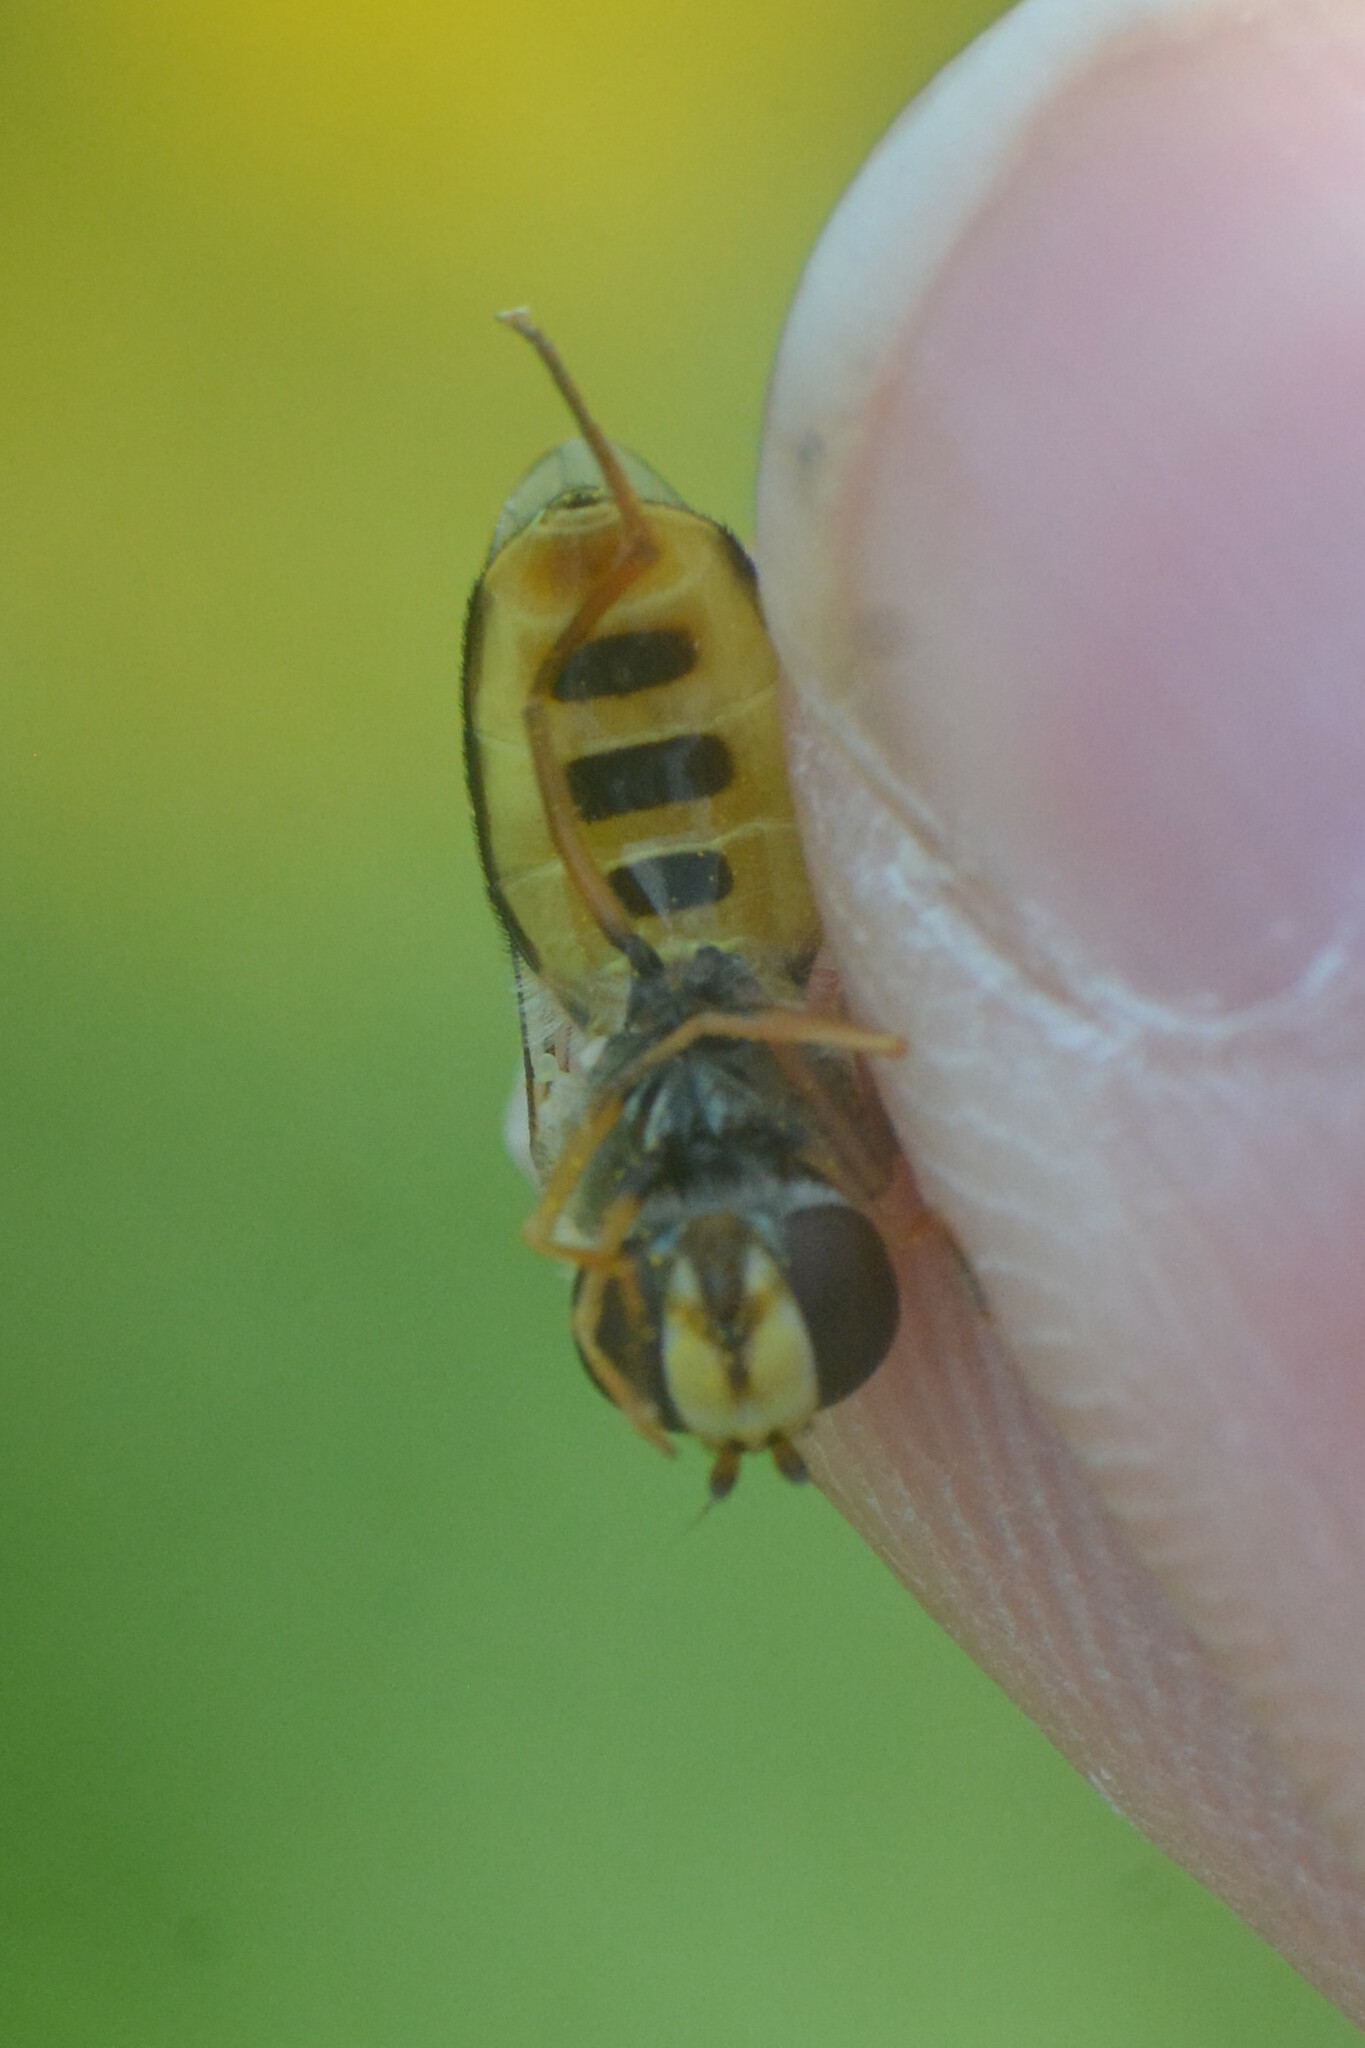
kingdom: Animalia
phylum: Arthropoda
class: Insecta
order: Diptera
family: Syrphidae
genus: Eupeodes
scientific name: Eupeodes luniger
